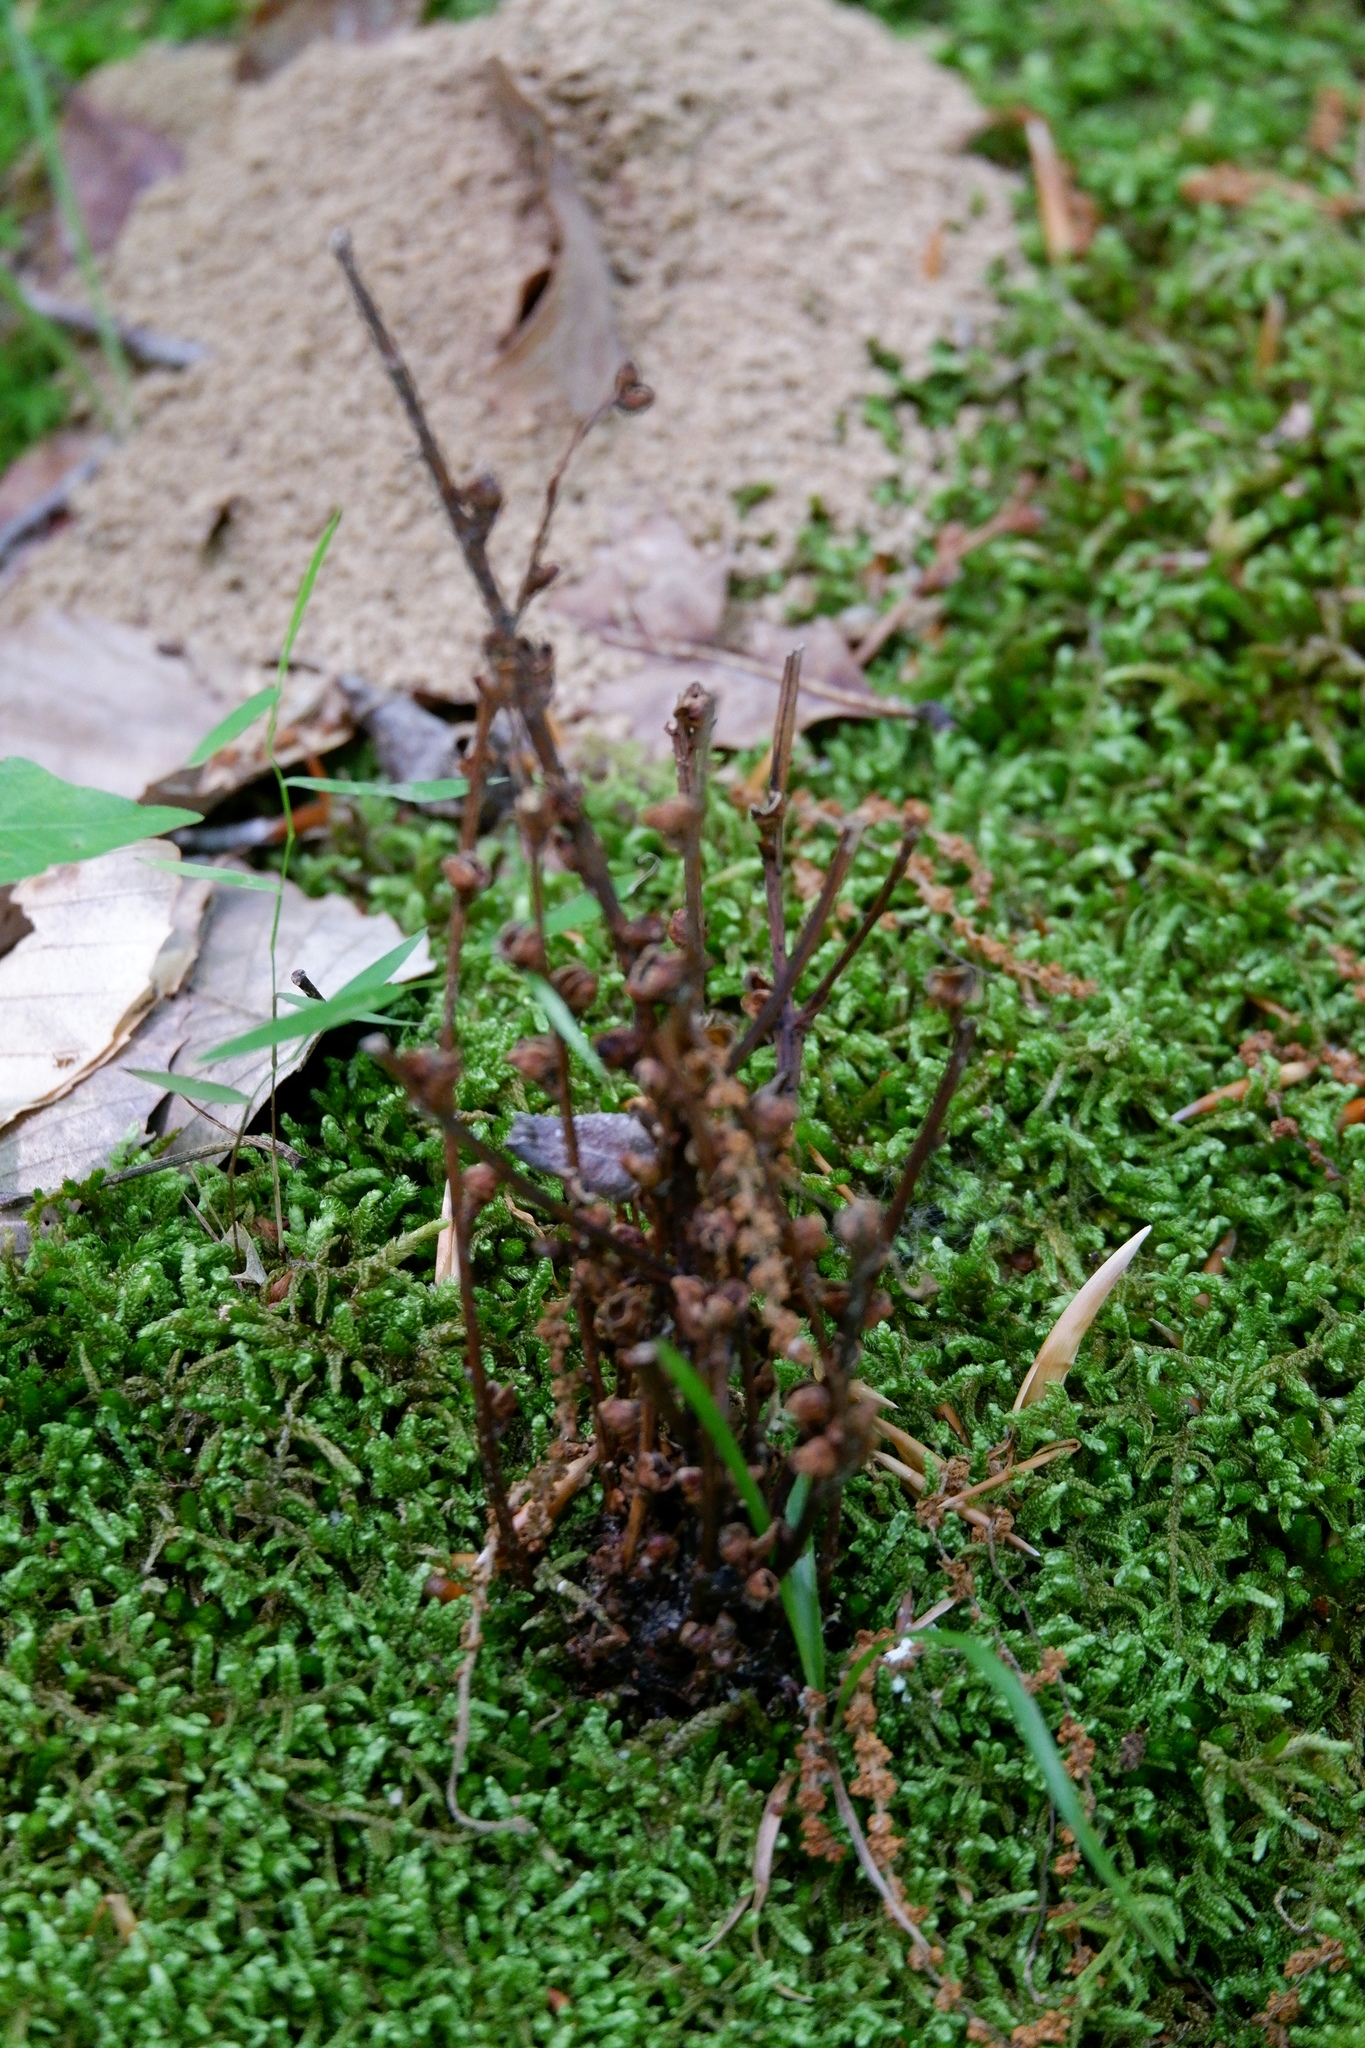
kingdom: Plantae
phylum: Tracheophyta
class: Magnoliopsida
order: Lamiales
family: Orobanchaceae
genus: Epifagus
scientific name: Epifagus virginiana
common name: Beechdrops
